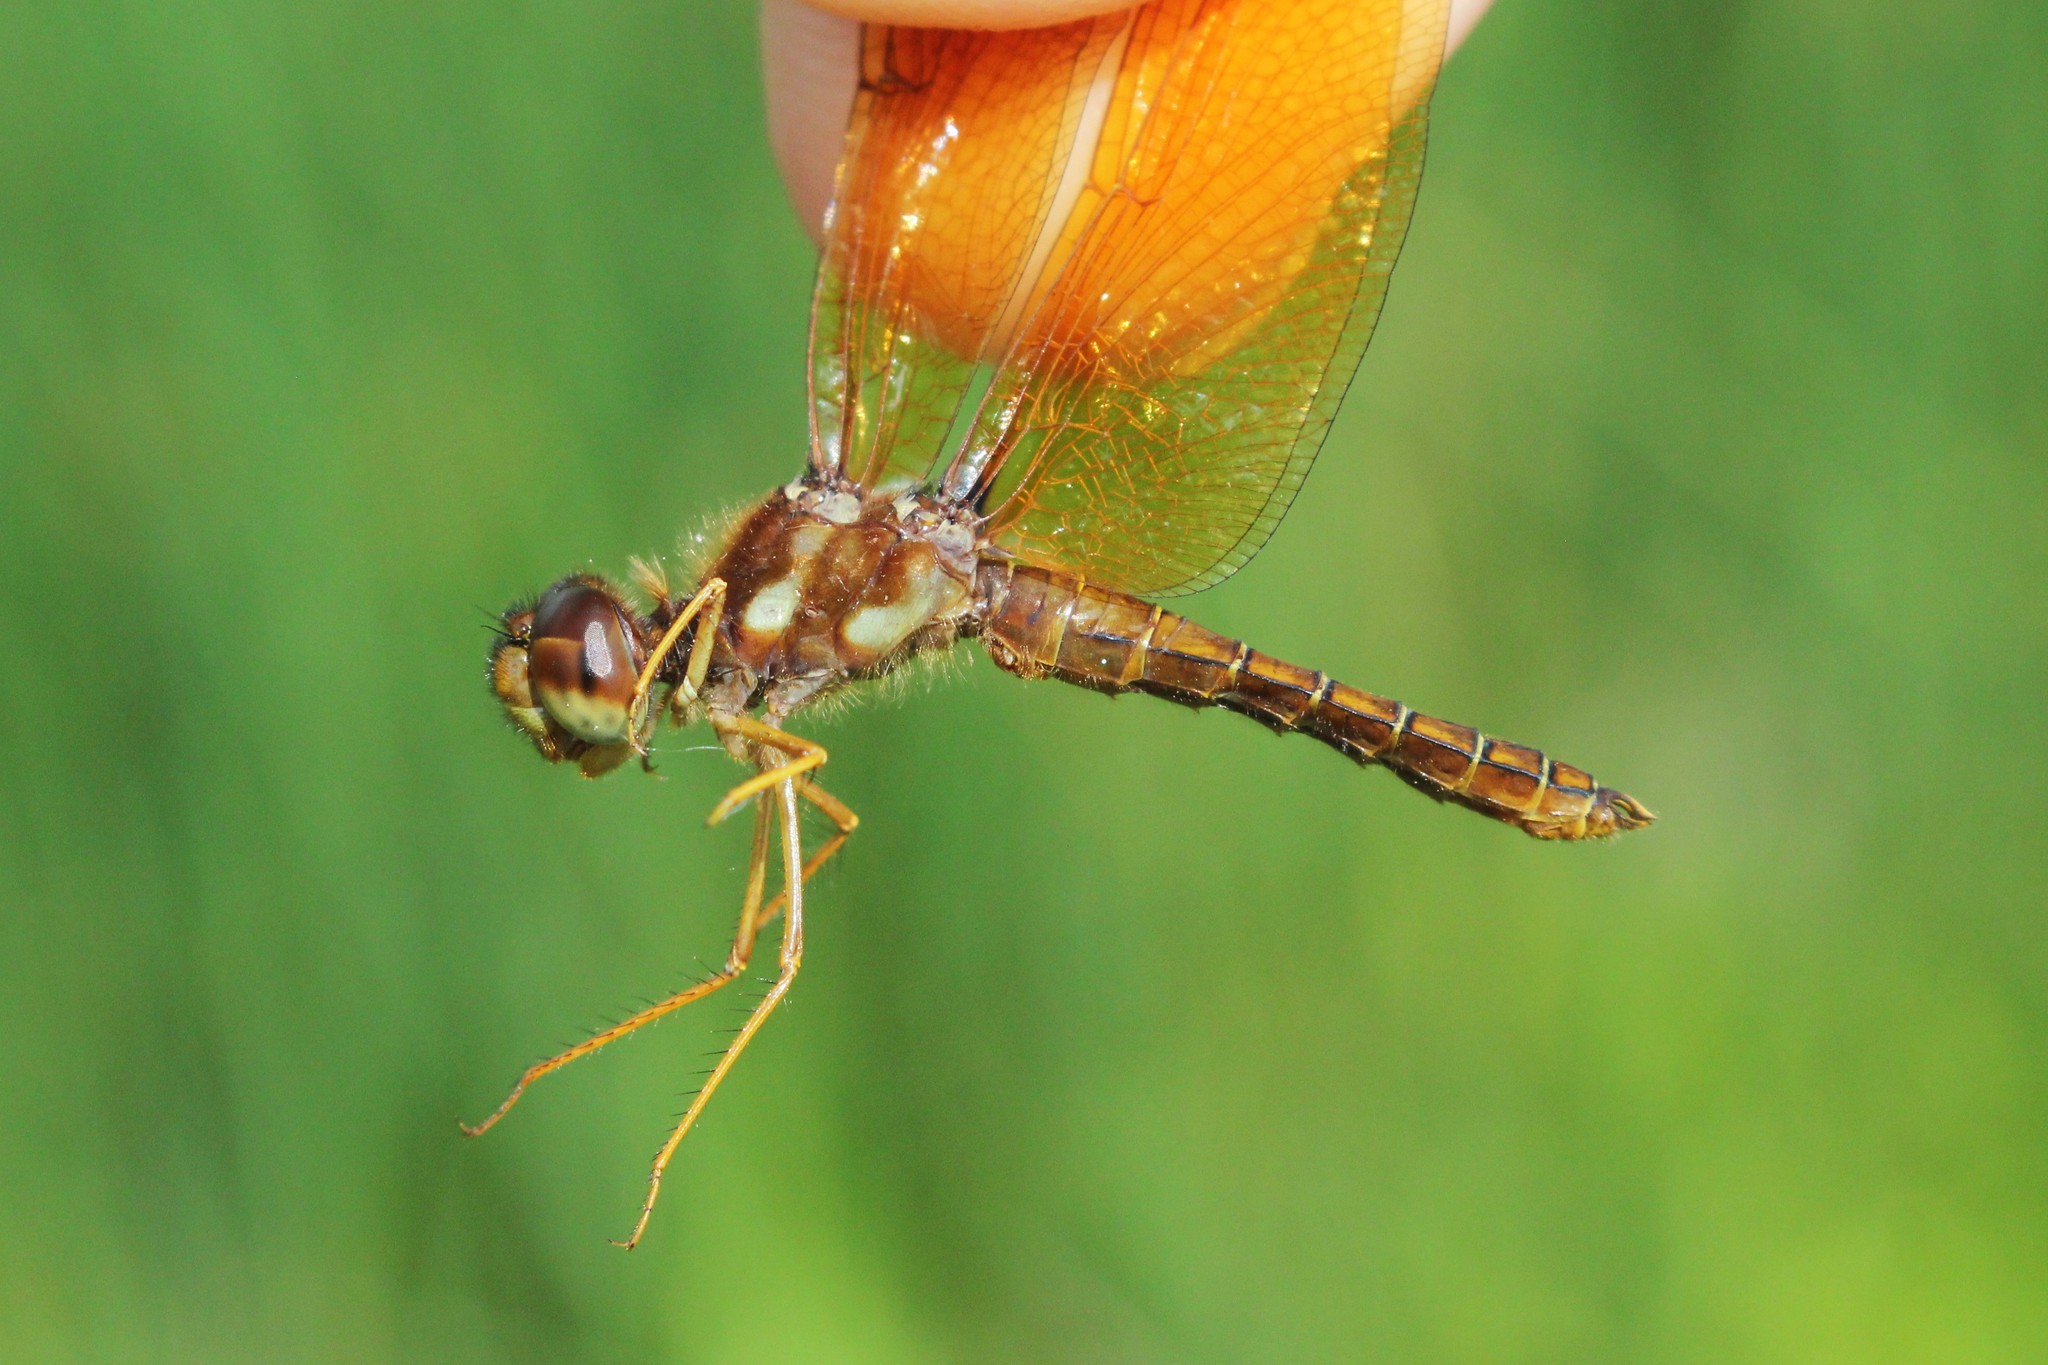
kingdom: Animalia
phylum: Arthropoda
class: Insecta
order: Odonata
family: Libellulidae
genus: Perithemis
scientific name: Perithemis tenera
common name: Eastern amberwing
